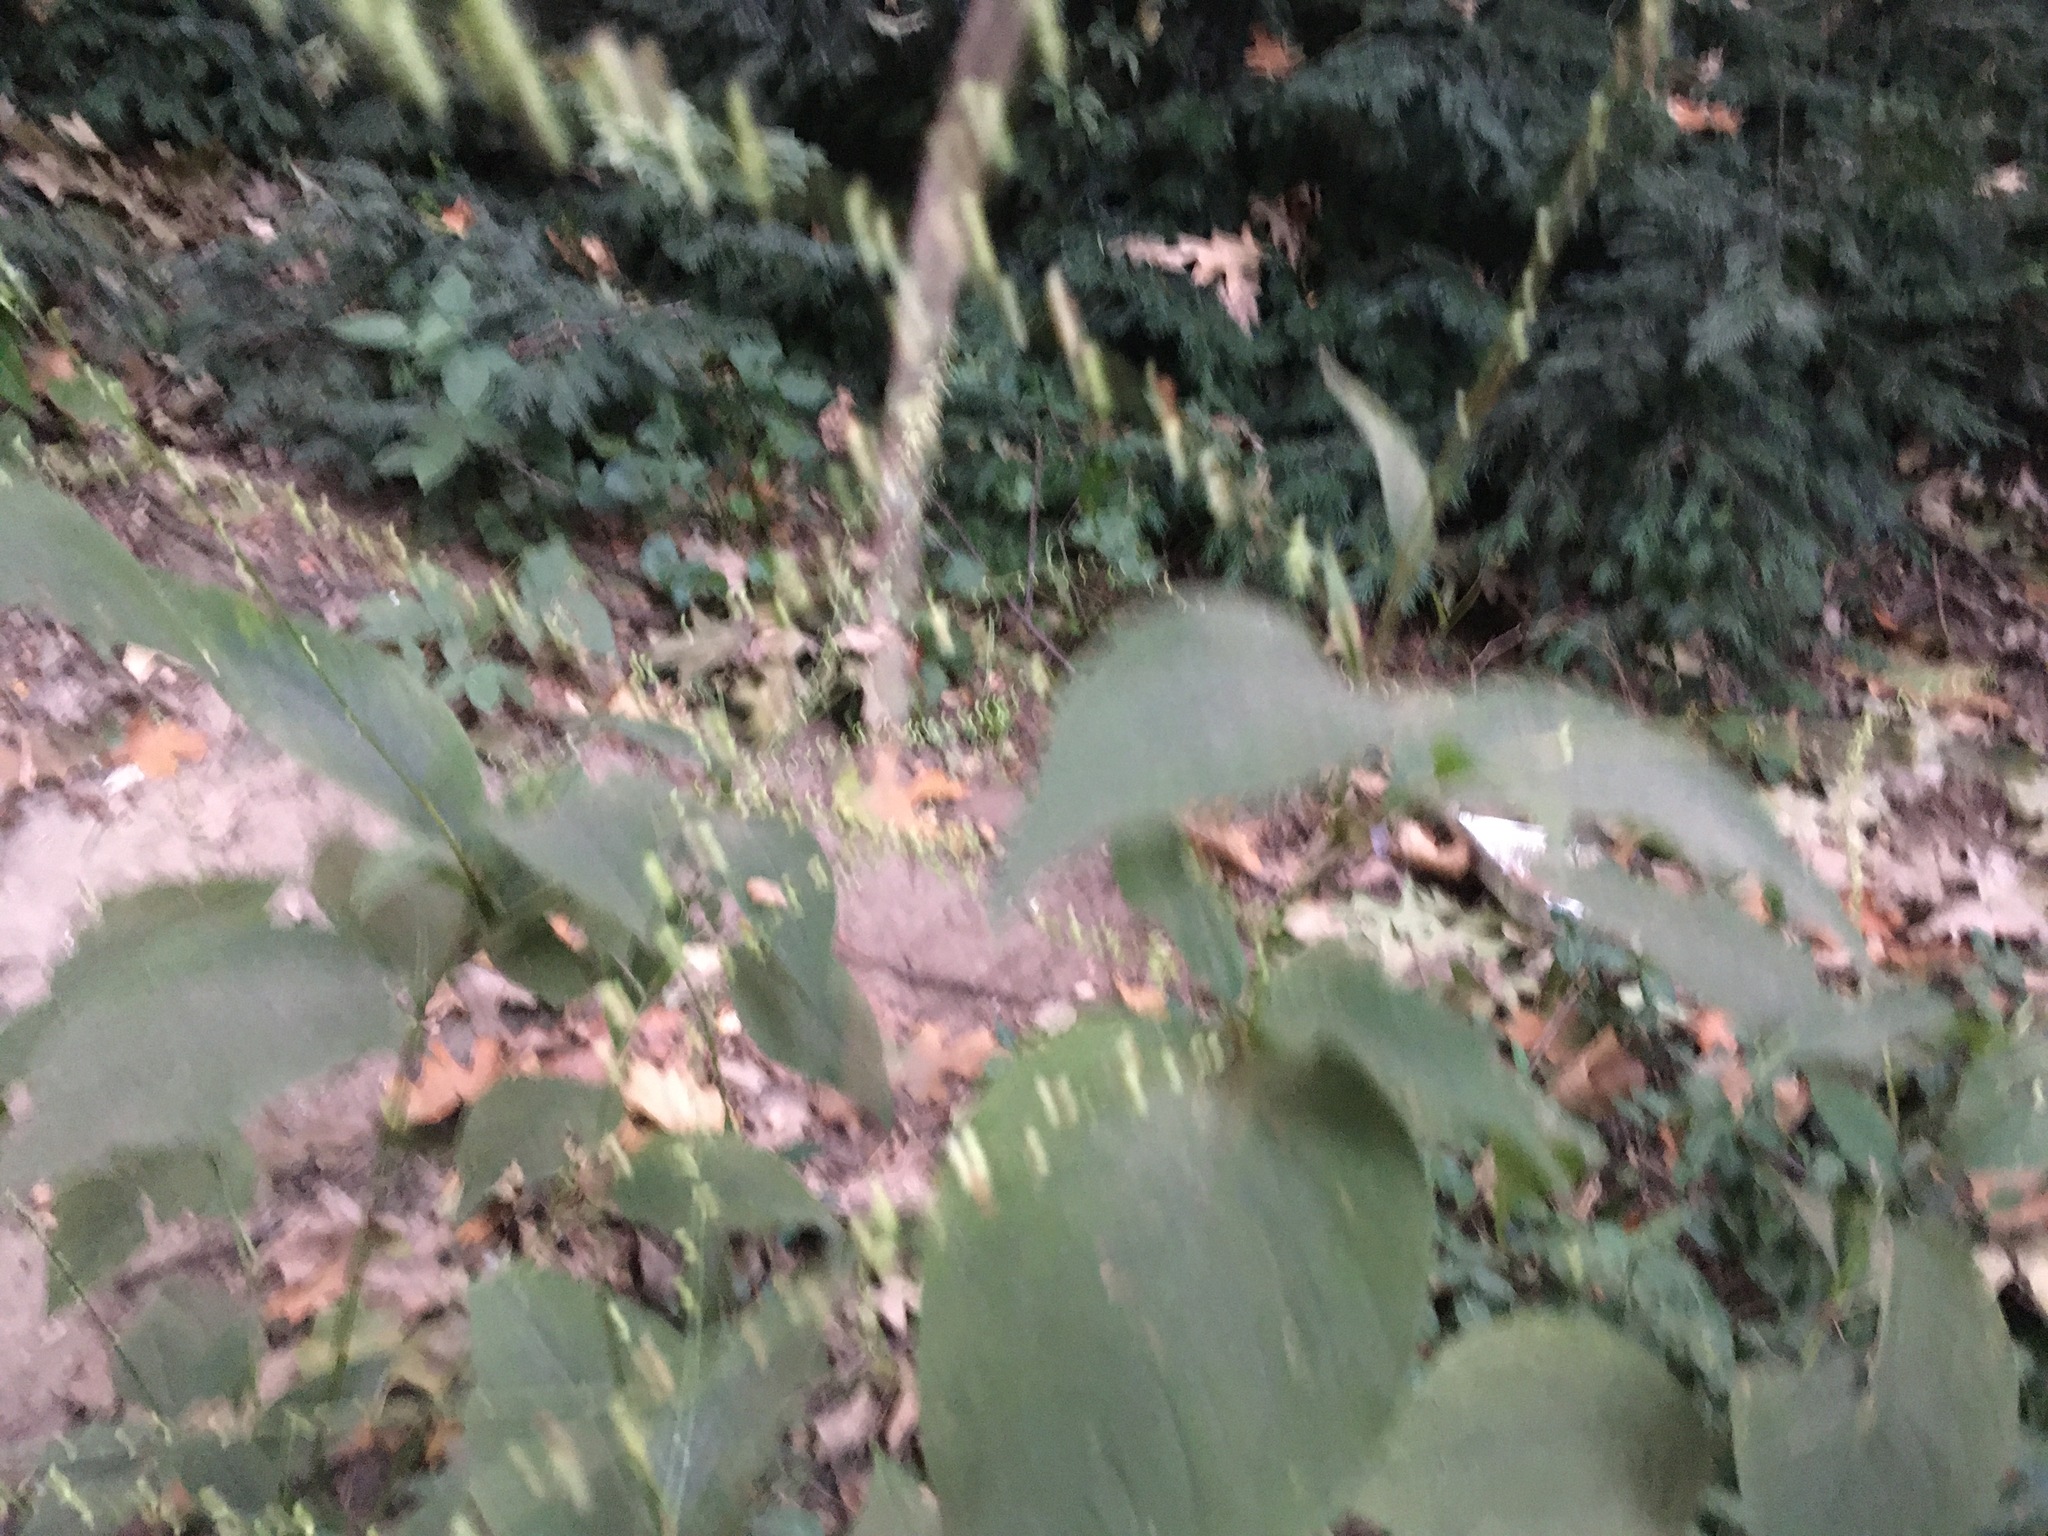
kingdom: Plantae
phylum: Tracheophyta
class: Magnoliopsida
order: Caryophyllales
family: Polygonaceae
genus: Persicaria
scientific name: Persicaria virginiana
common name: Jumpseed
